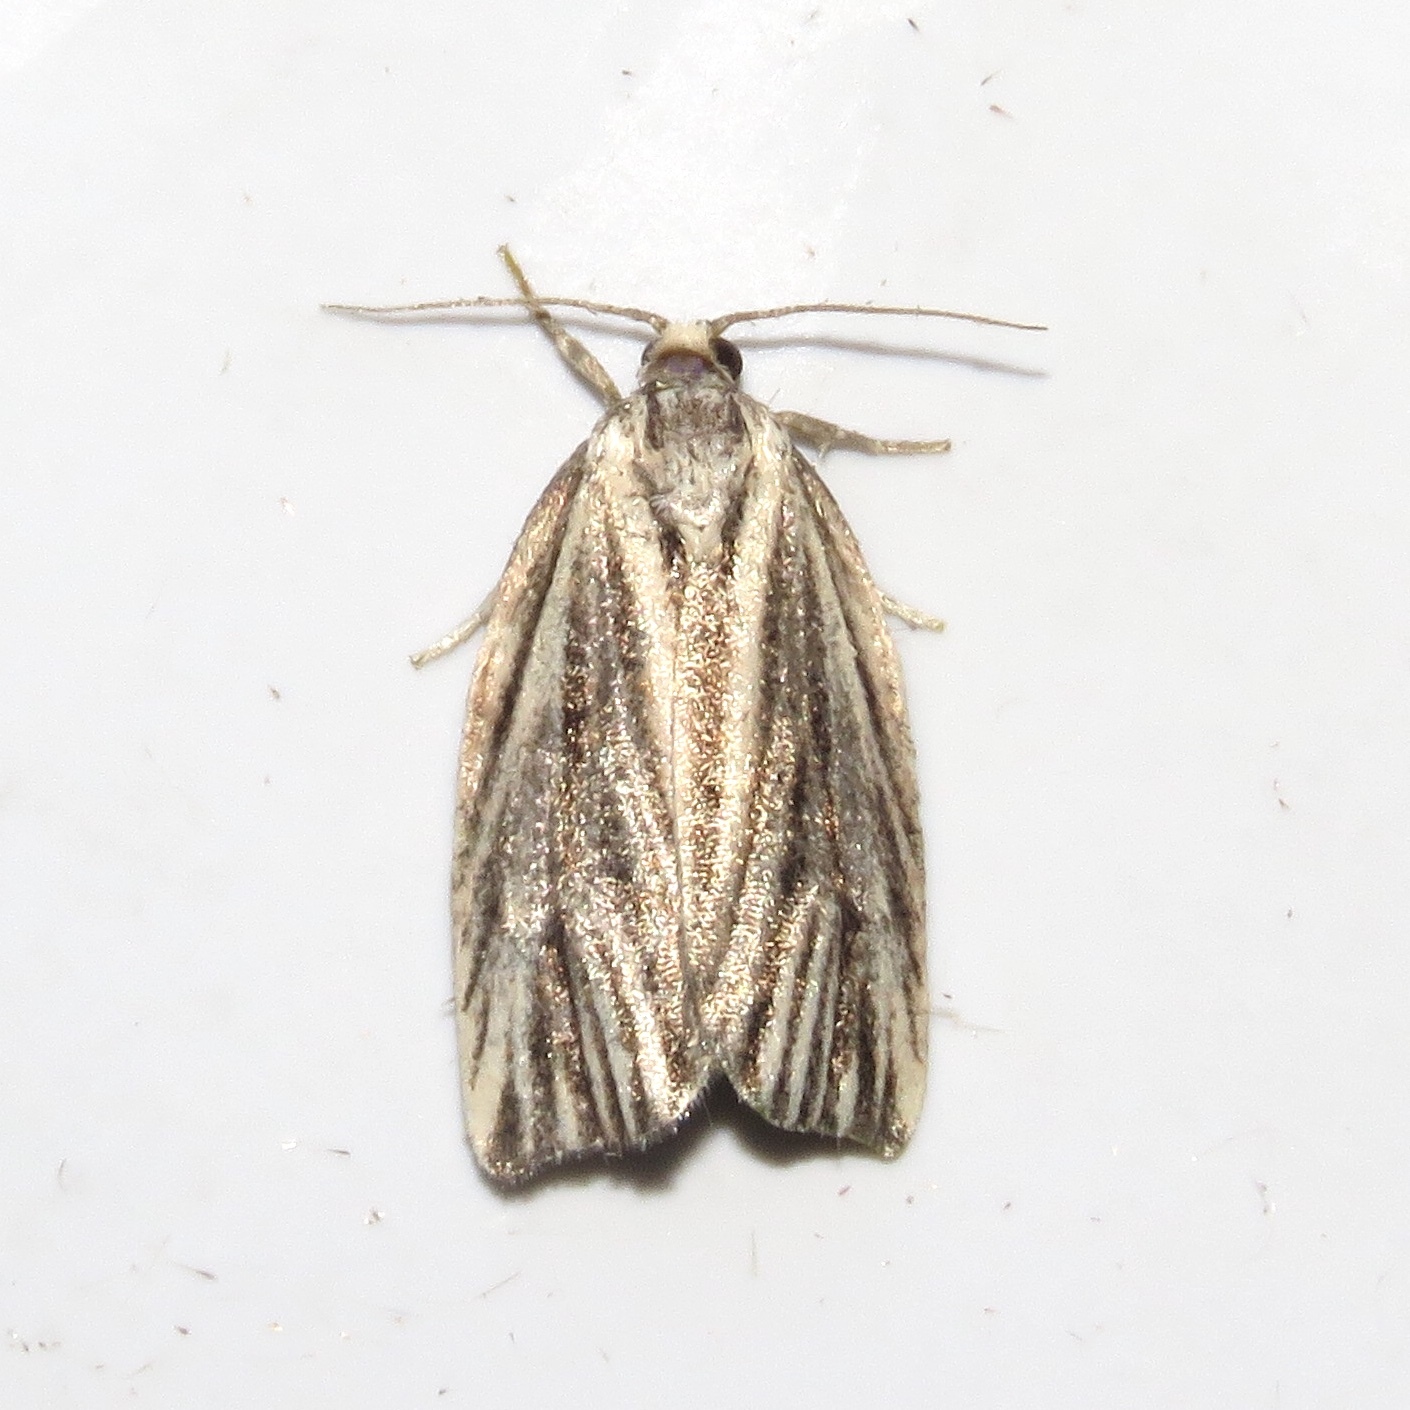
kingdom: Animalia
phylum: Arthropoda
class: Insecta
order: Lepidoptera
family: Tortricidae
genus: Archips
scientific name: Archips strianus
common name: Striated tortrix moth
